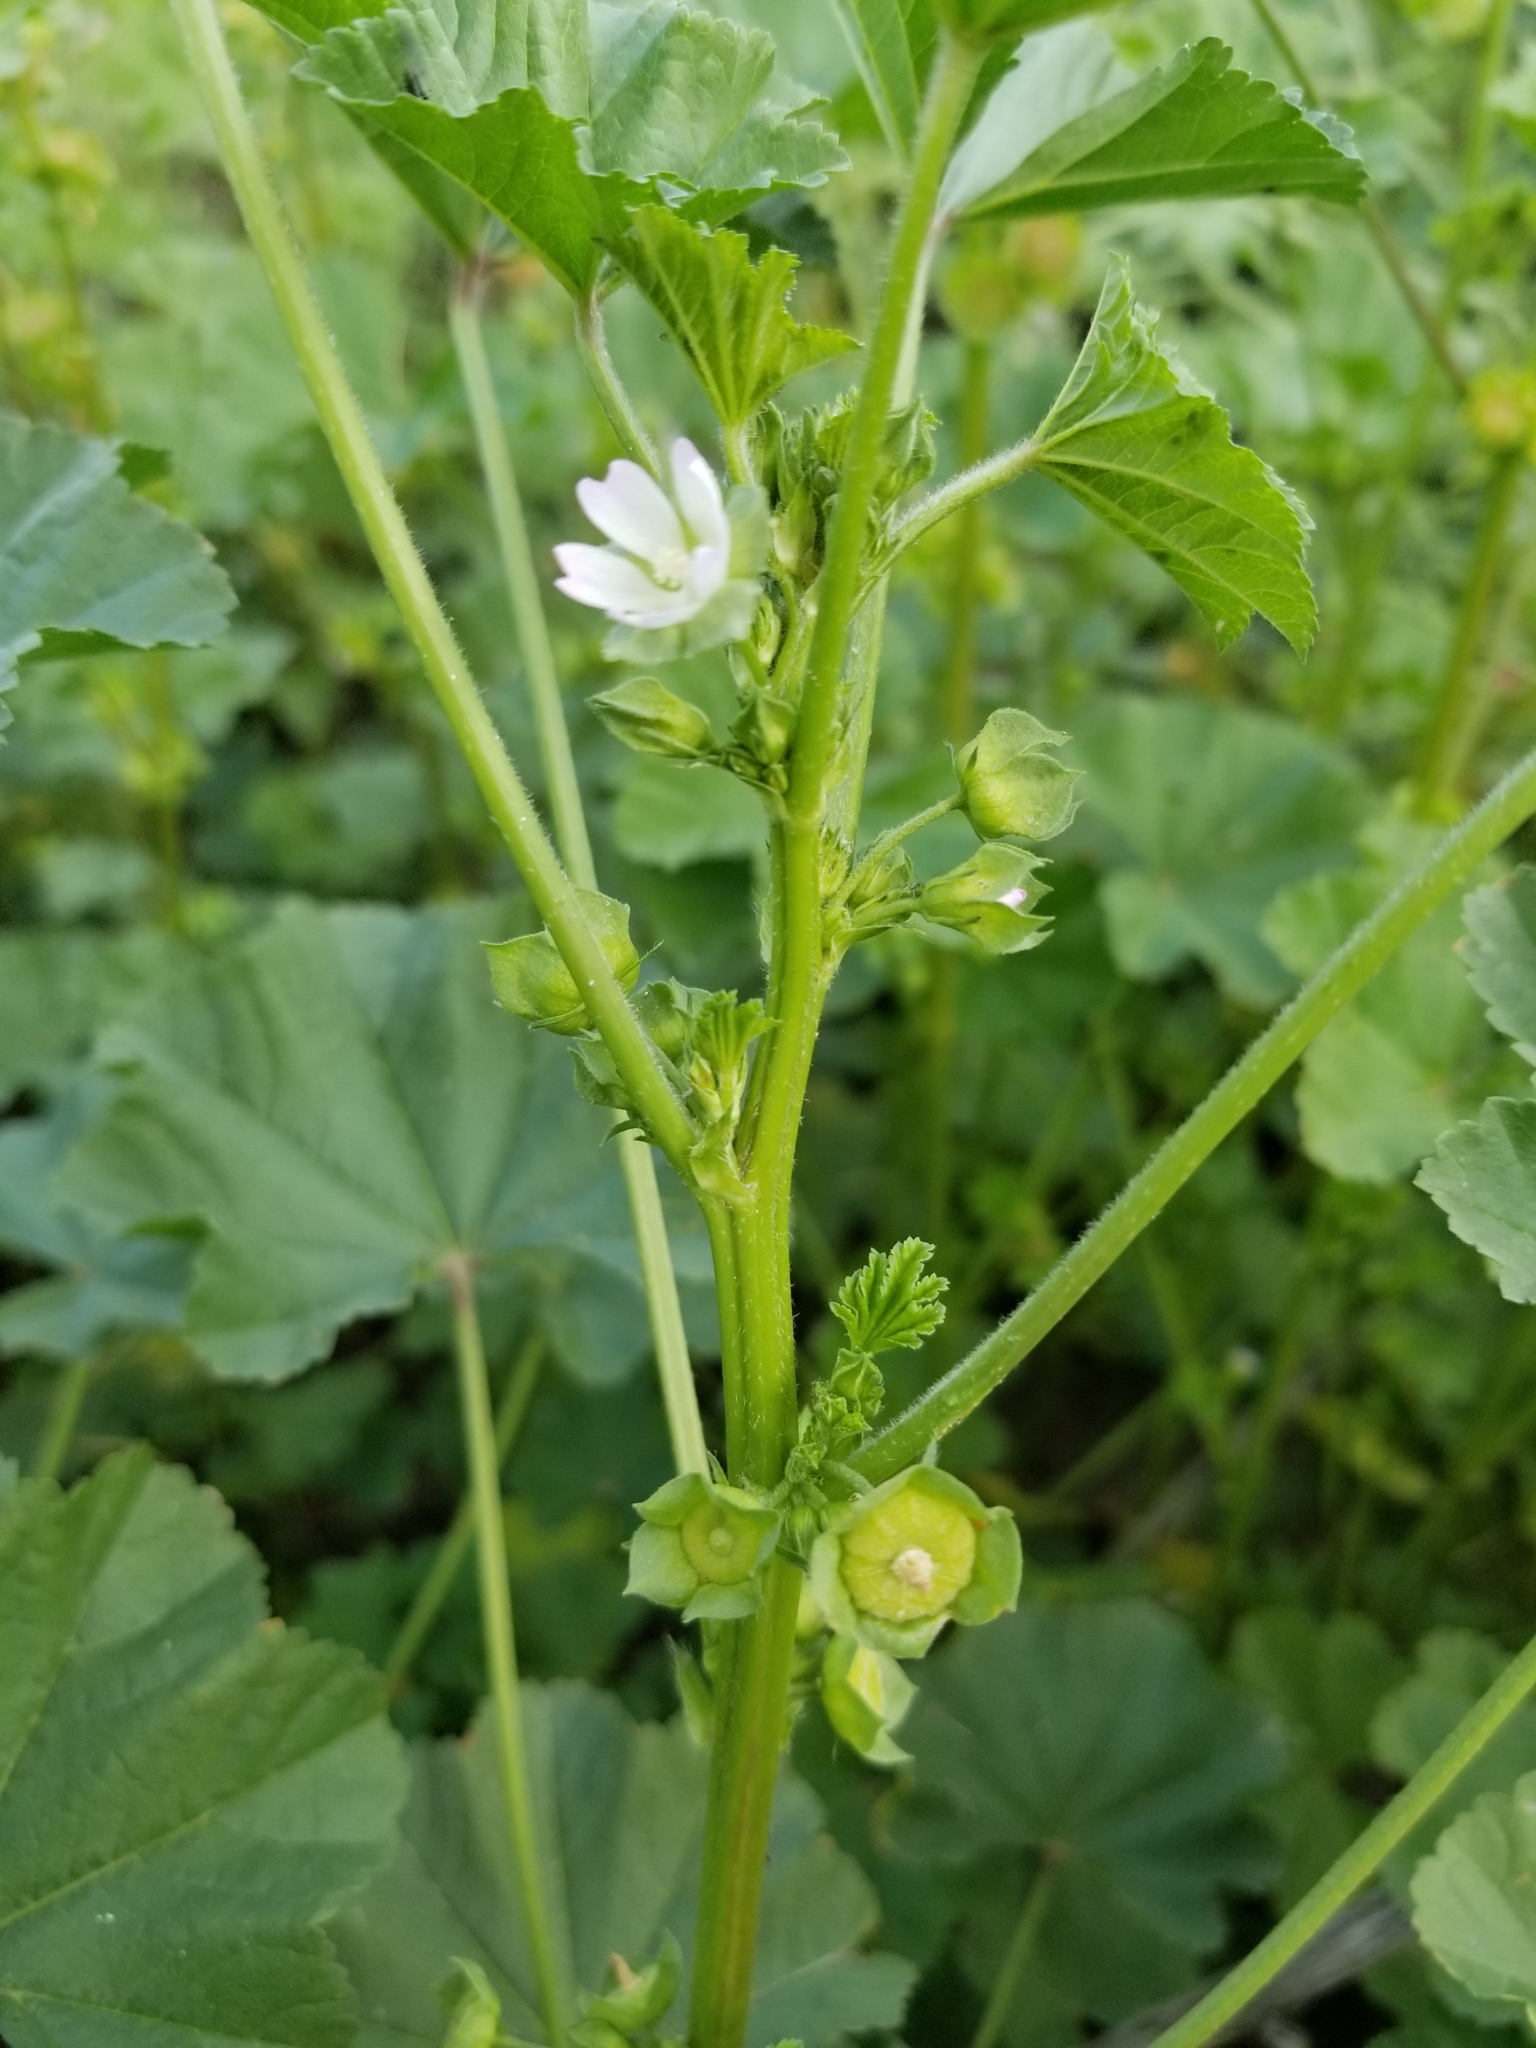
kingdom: Plantae
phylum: Tracheophyta
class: Magnoliopsida
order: Malvales
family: Malvaceae
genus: Malva
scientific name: Malva parviflora
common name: Least mallow
